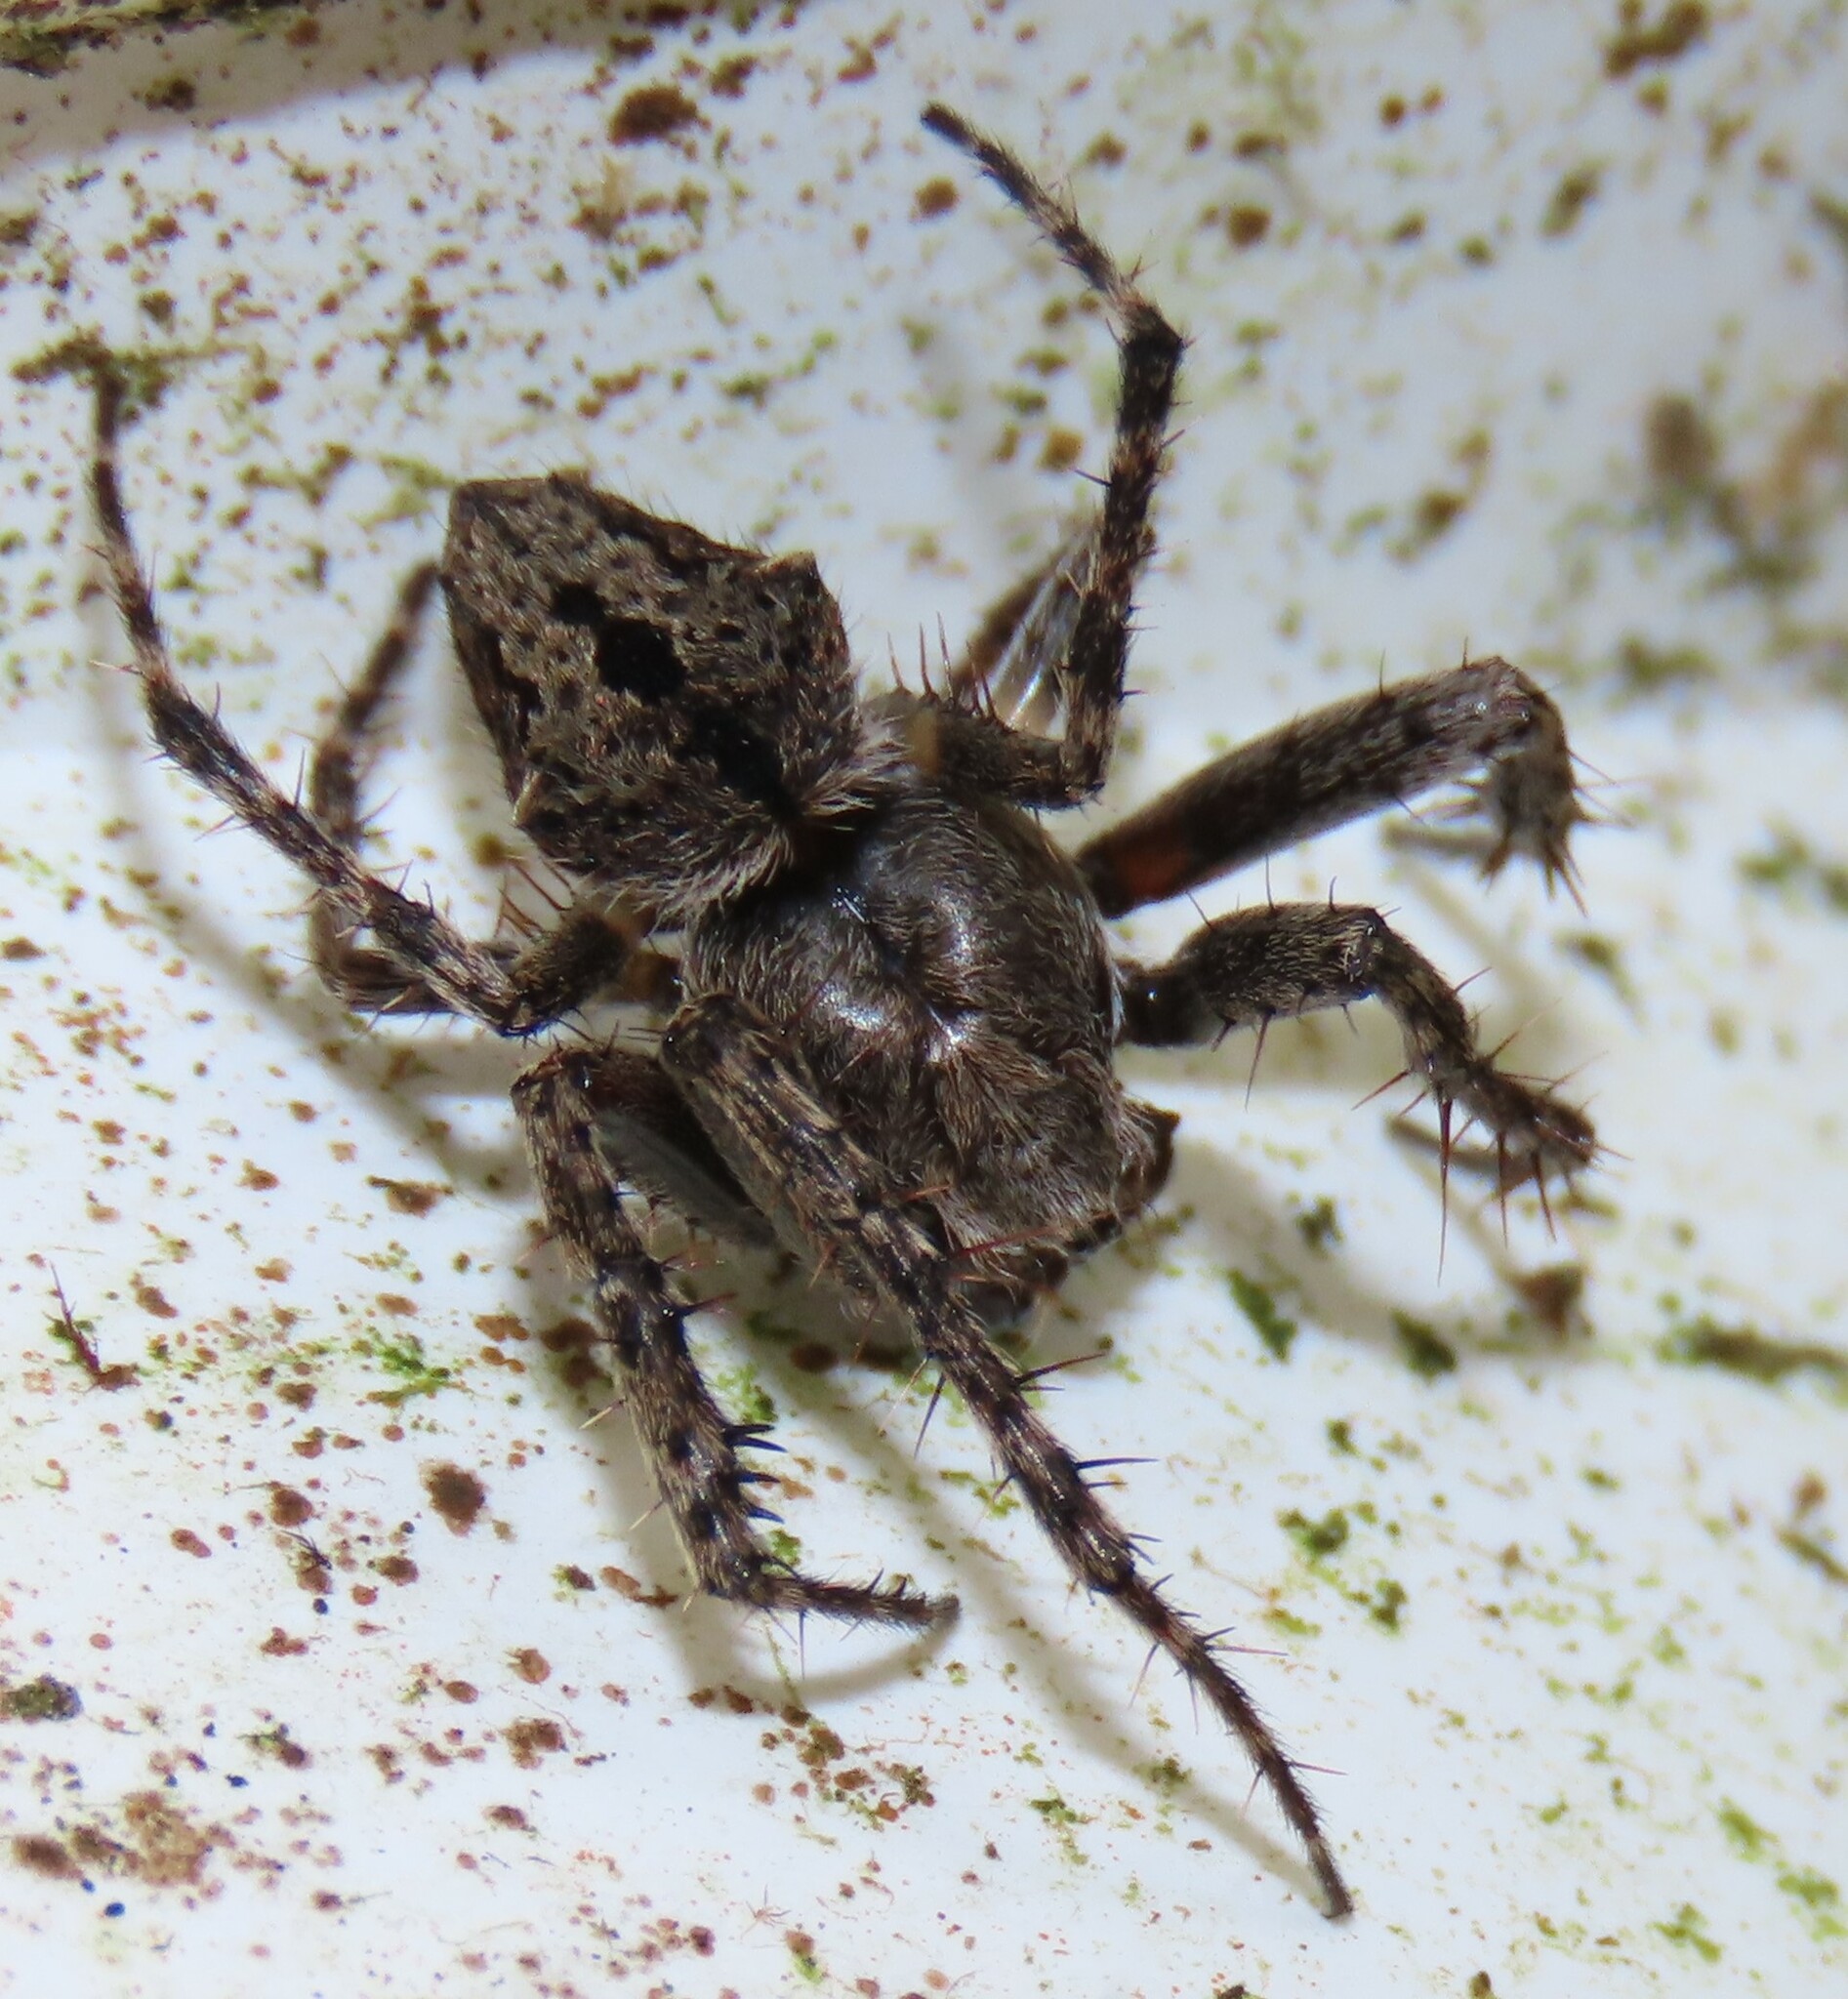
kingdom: Animalia
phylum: Arthropoda
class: Arachnida
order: Araneae
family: Araneidae
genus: Eriophora
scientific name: Eriophora pustulosa
